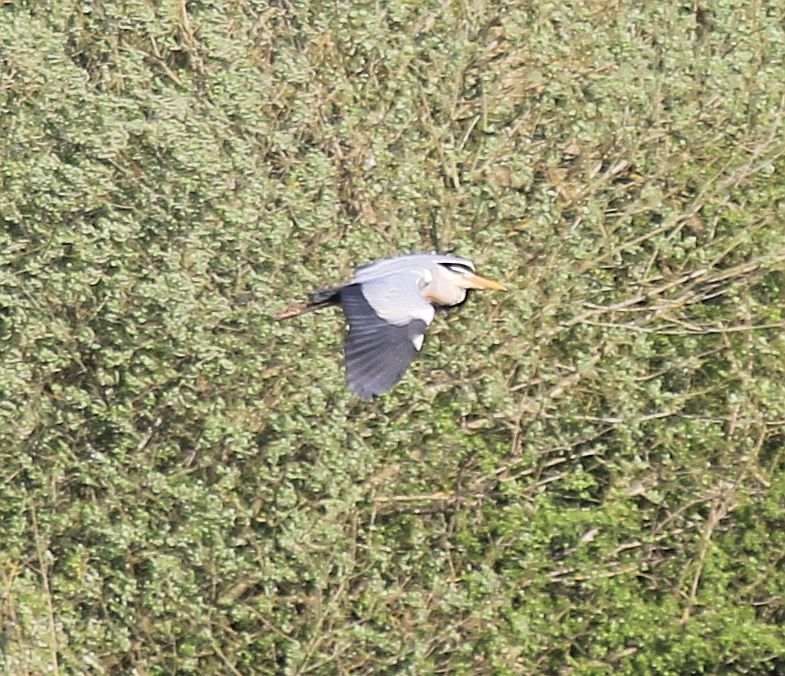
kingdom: Animalia
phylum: Chordata
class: Aves
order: Pelecaniformes
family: Ardeidae
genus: Ardea
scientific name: Ardea cinerea
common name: Grey heron
